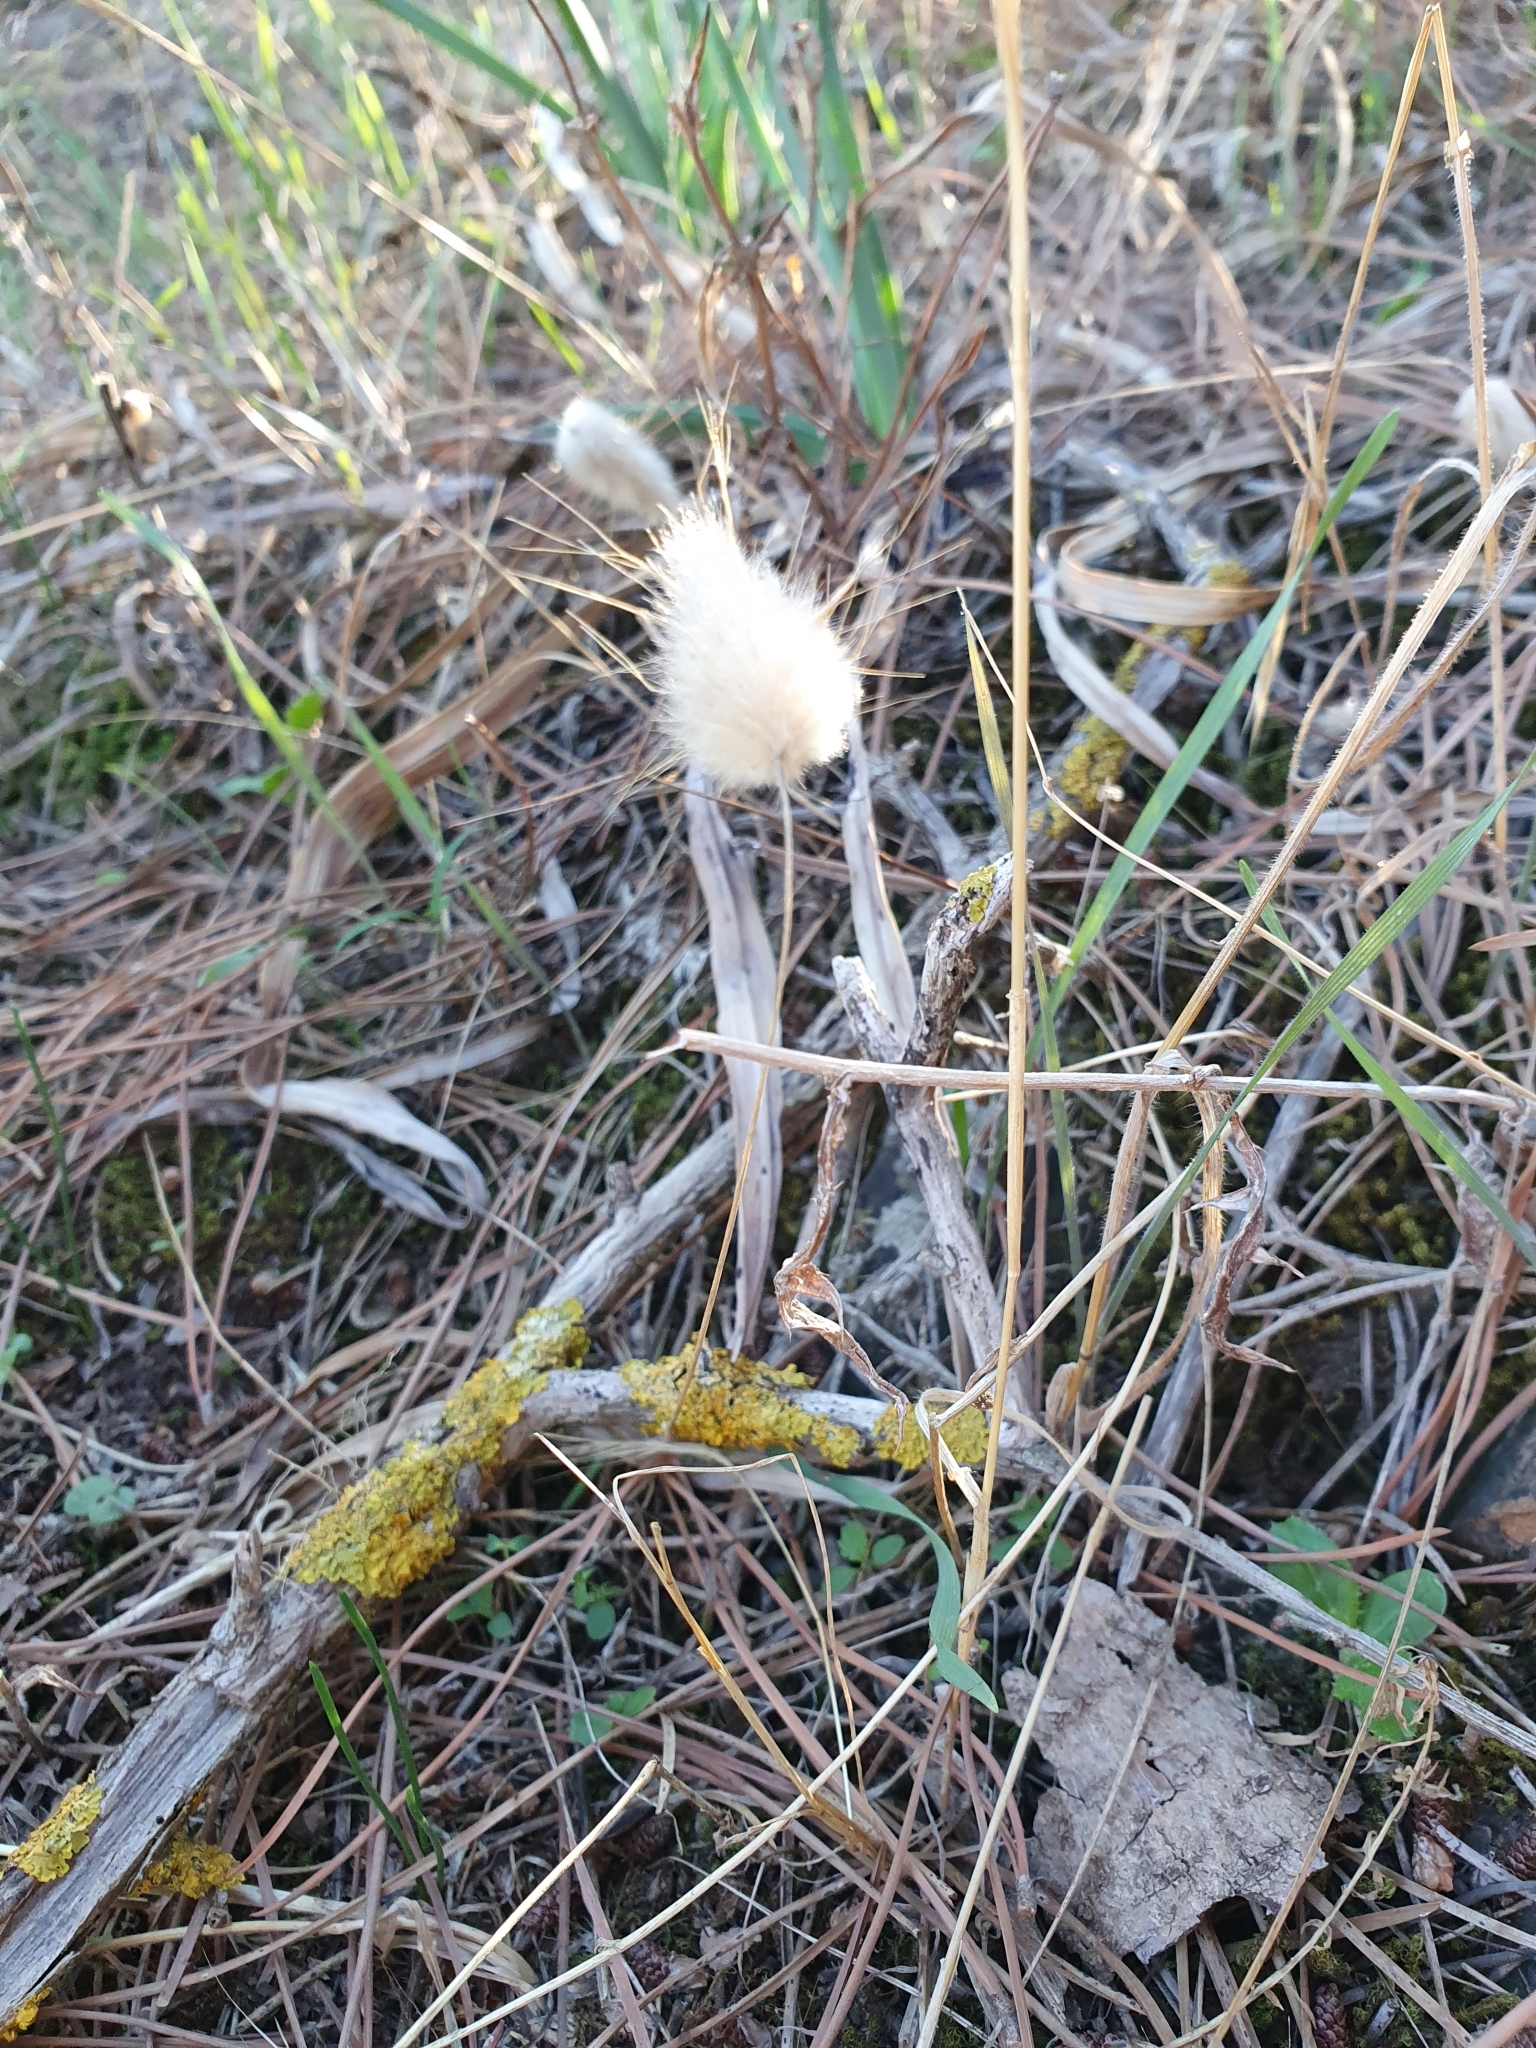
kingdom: Plantae
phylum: Tracheophyta
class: Liliopsida
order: Poales
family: Poaceae
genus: Lagurus
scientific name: Lagurus ovatus
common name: Hare's-tail
